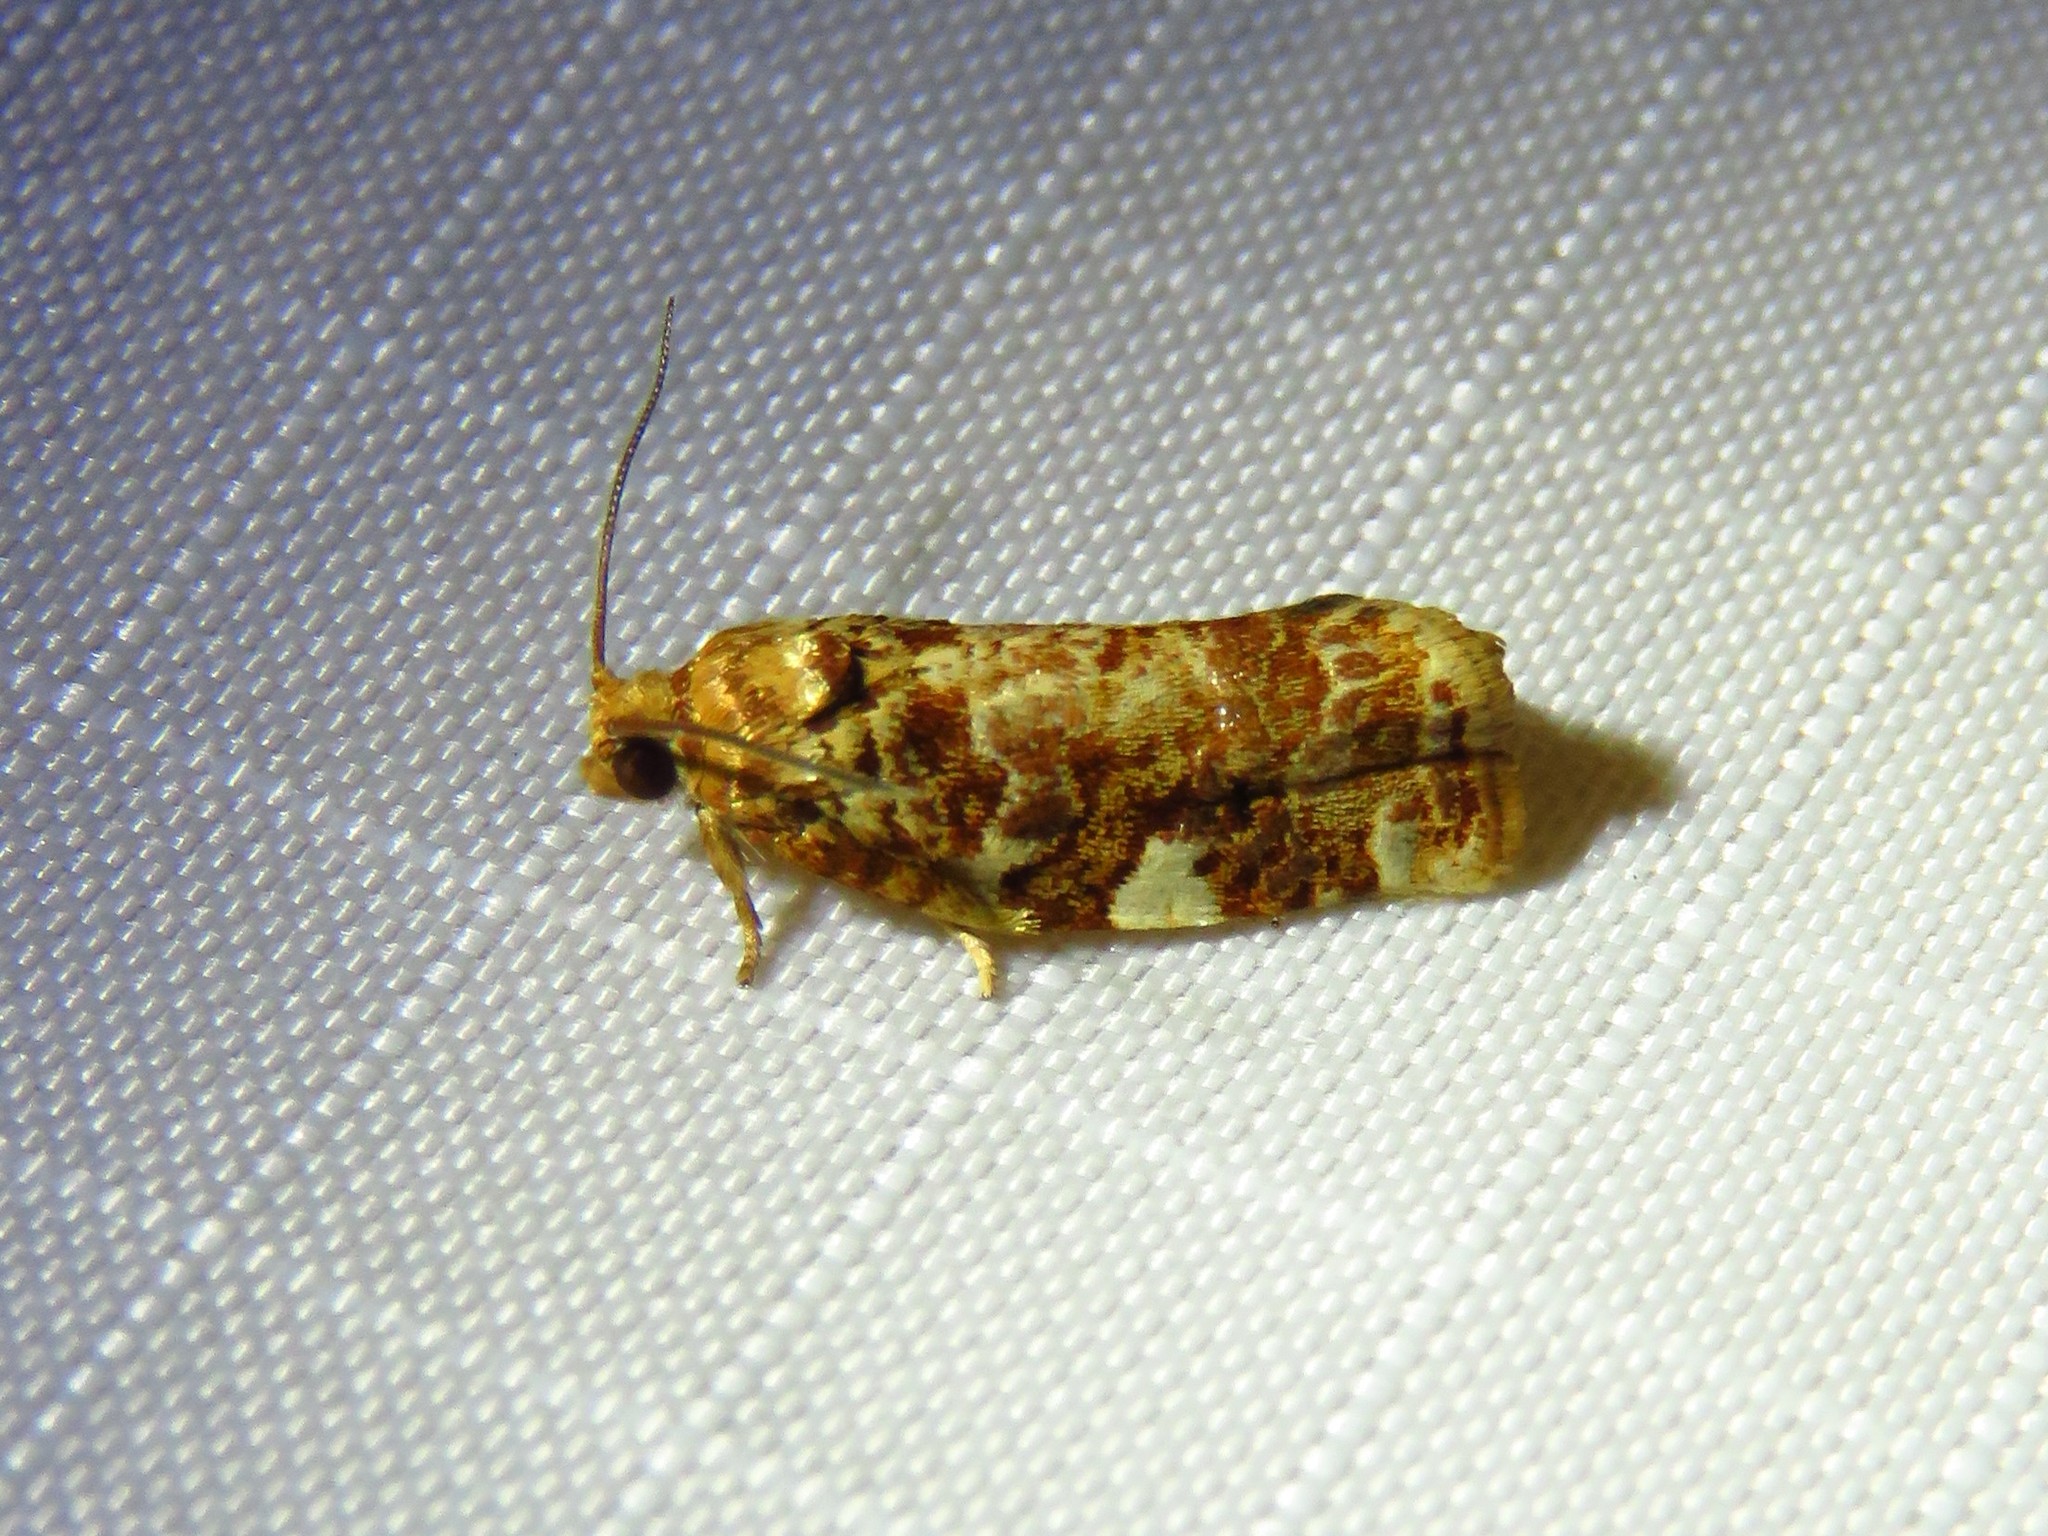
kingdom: Animalia
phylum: Arthropoda
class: Insecta
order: Lepidoptera
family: Tortricidae
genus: Archips
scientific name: Archips argyrospila
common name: Fruit-tree leafroller moth
